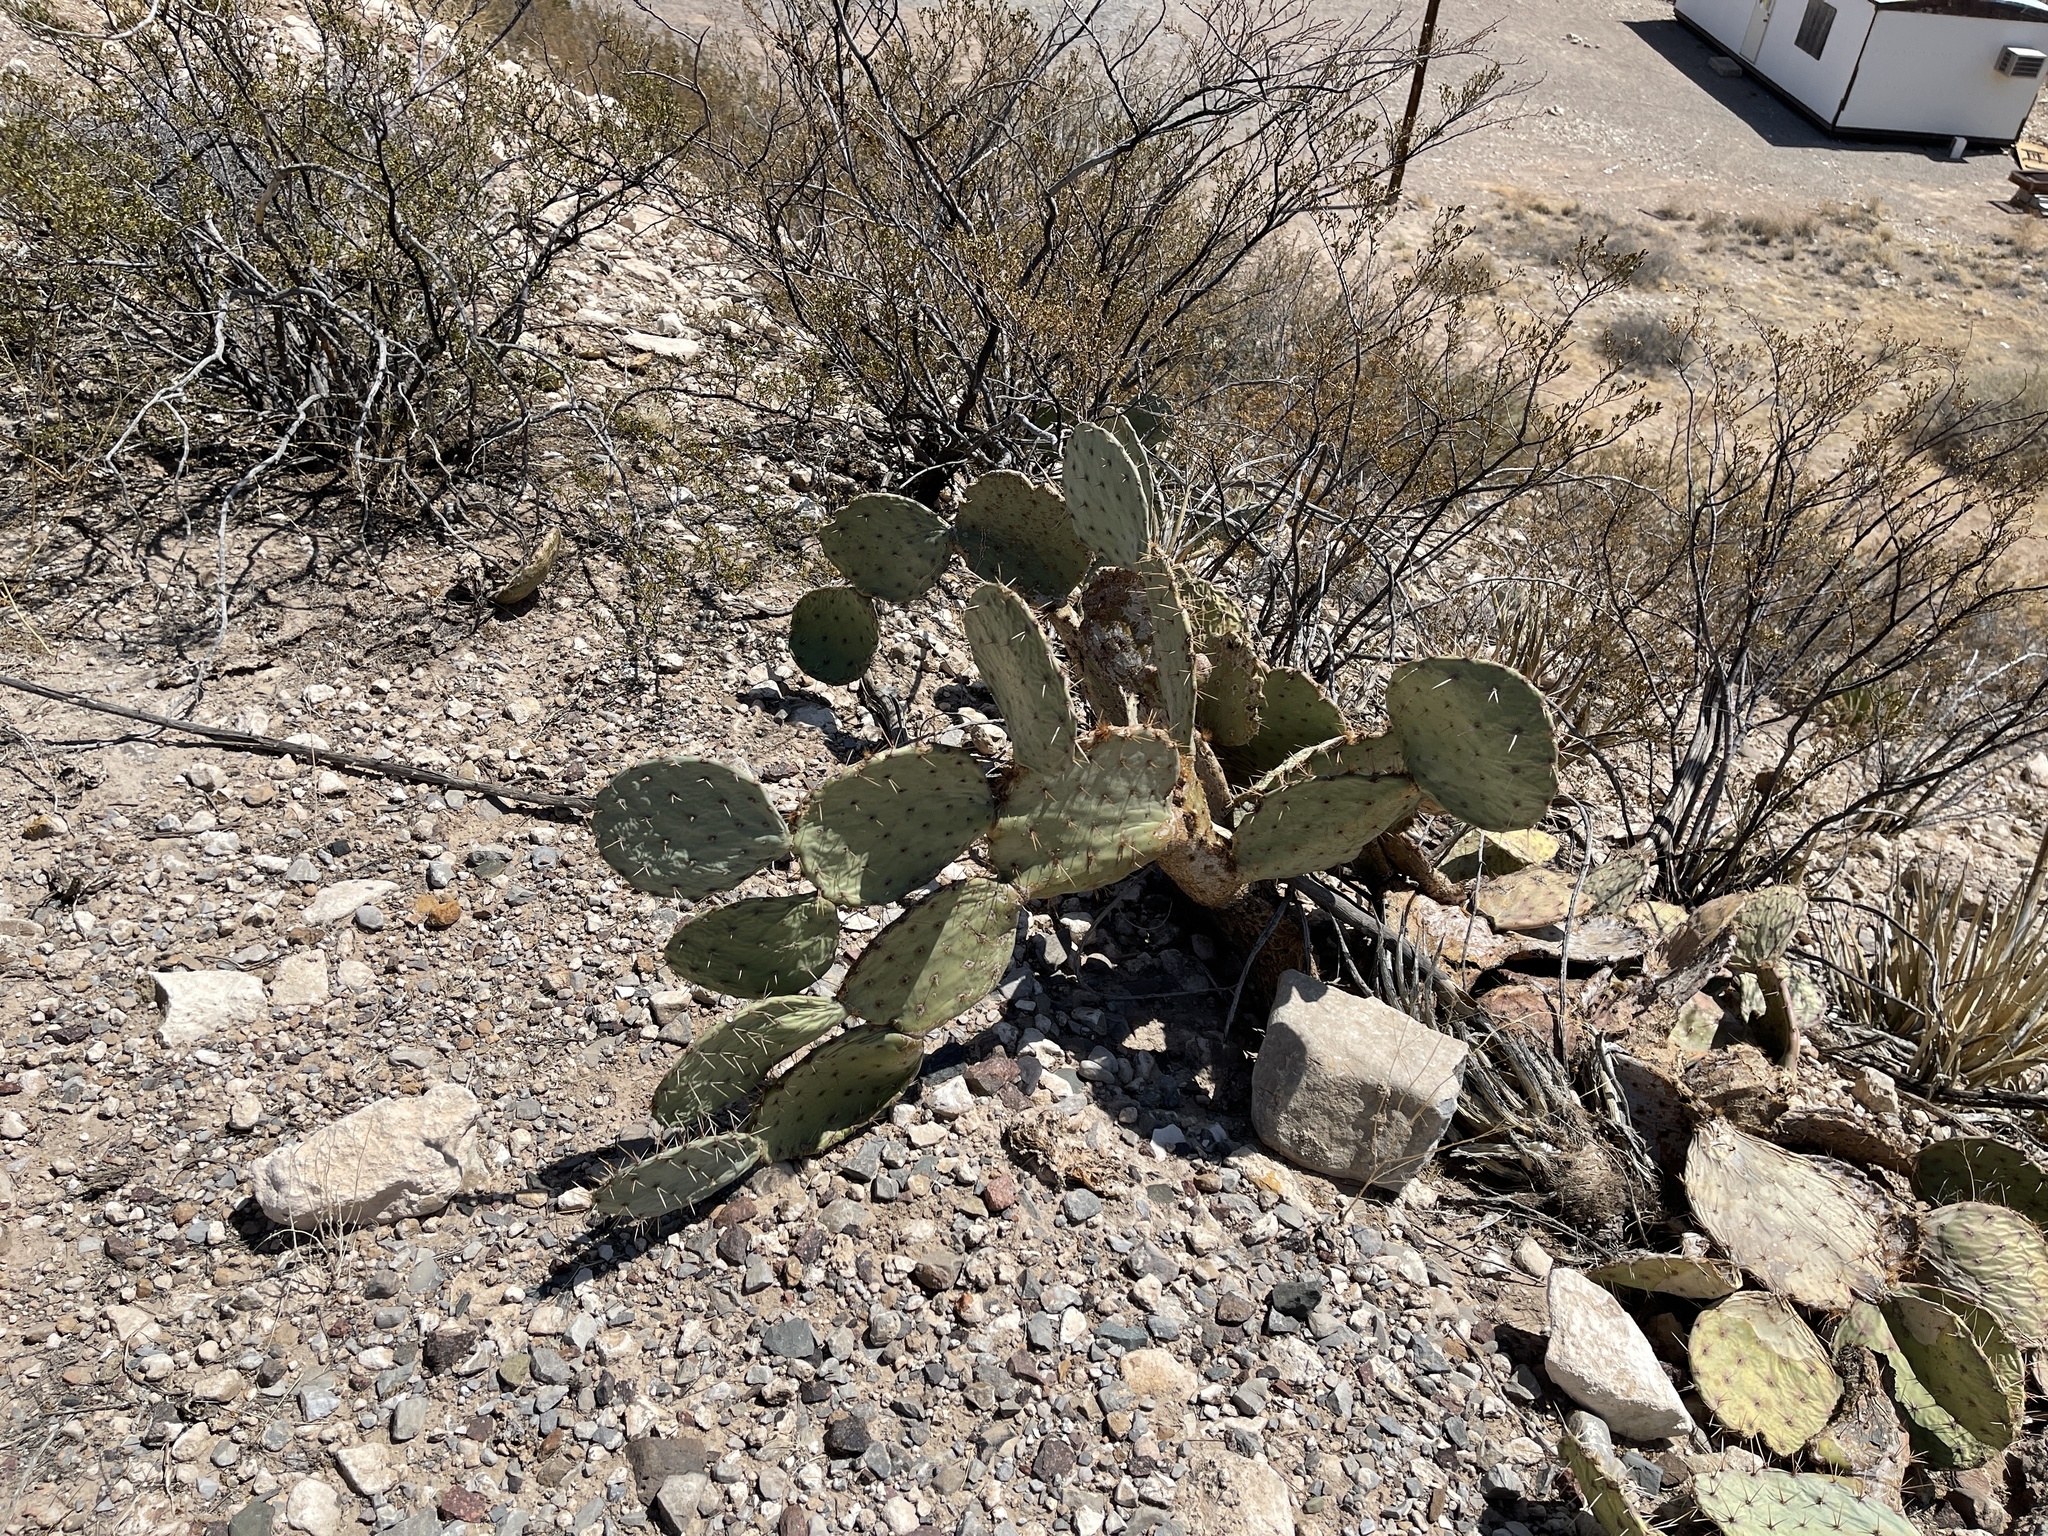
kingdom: Plantae
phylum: Tracheophyta
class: Magnoliopsida
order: Caryophyllales
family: Cactaceae
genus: Opuntia
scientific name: Opuntia engelmannii
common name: Cactus-apple
